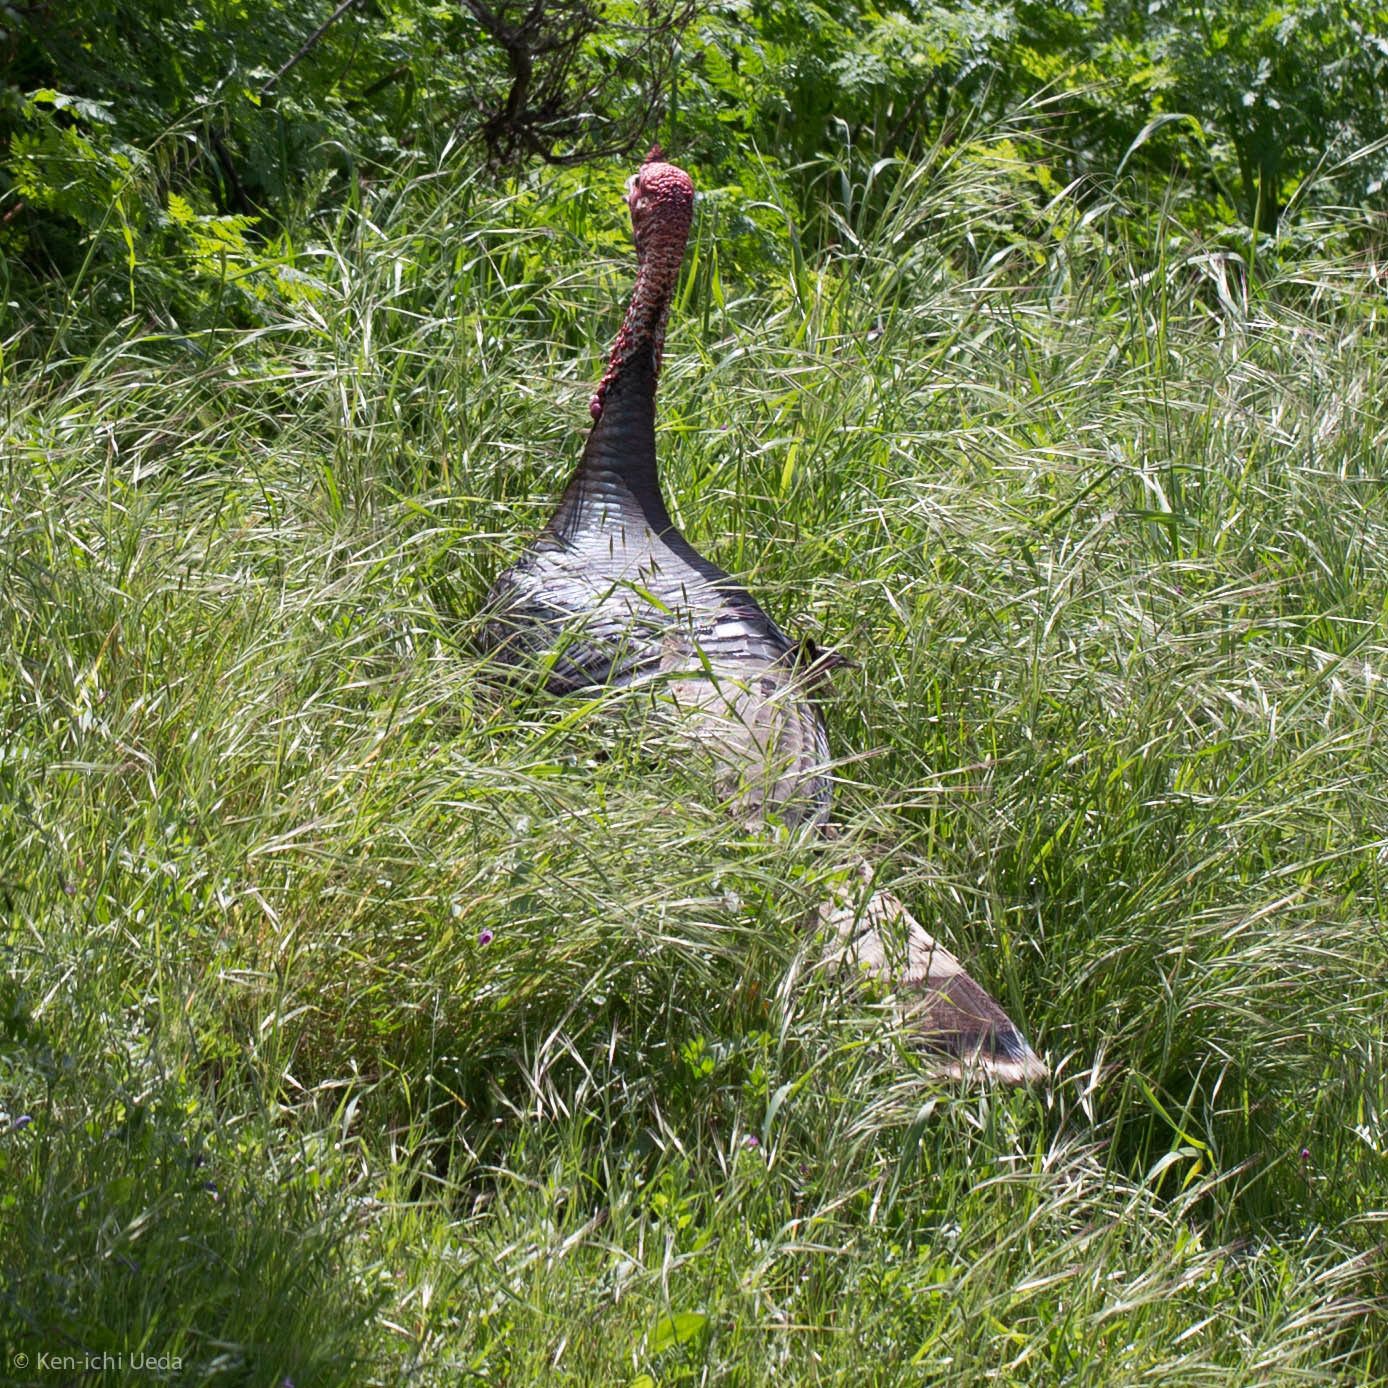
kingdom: Animalia
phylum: Chordata
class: Aves
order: Galliformes
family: Phasianidae
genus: Meleagris
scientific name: Meleagris gallopavo
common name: Wild turkey
